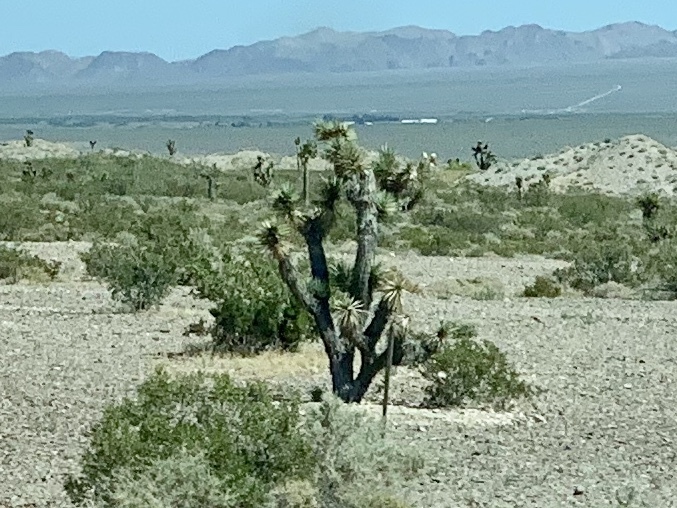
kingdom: Plantae
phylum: Tracheophyta
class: Liliopsida
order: Asparagales
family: Asparagaceae
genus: Yucca
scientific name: Yucca brevifolia
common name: Joshua tree
